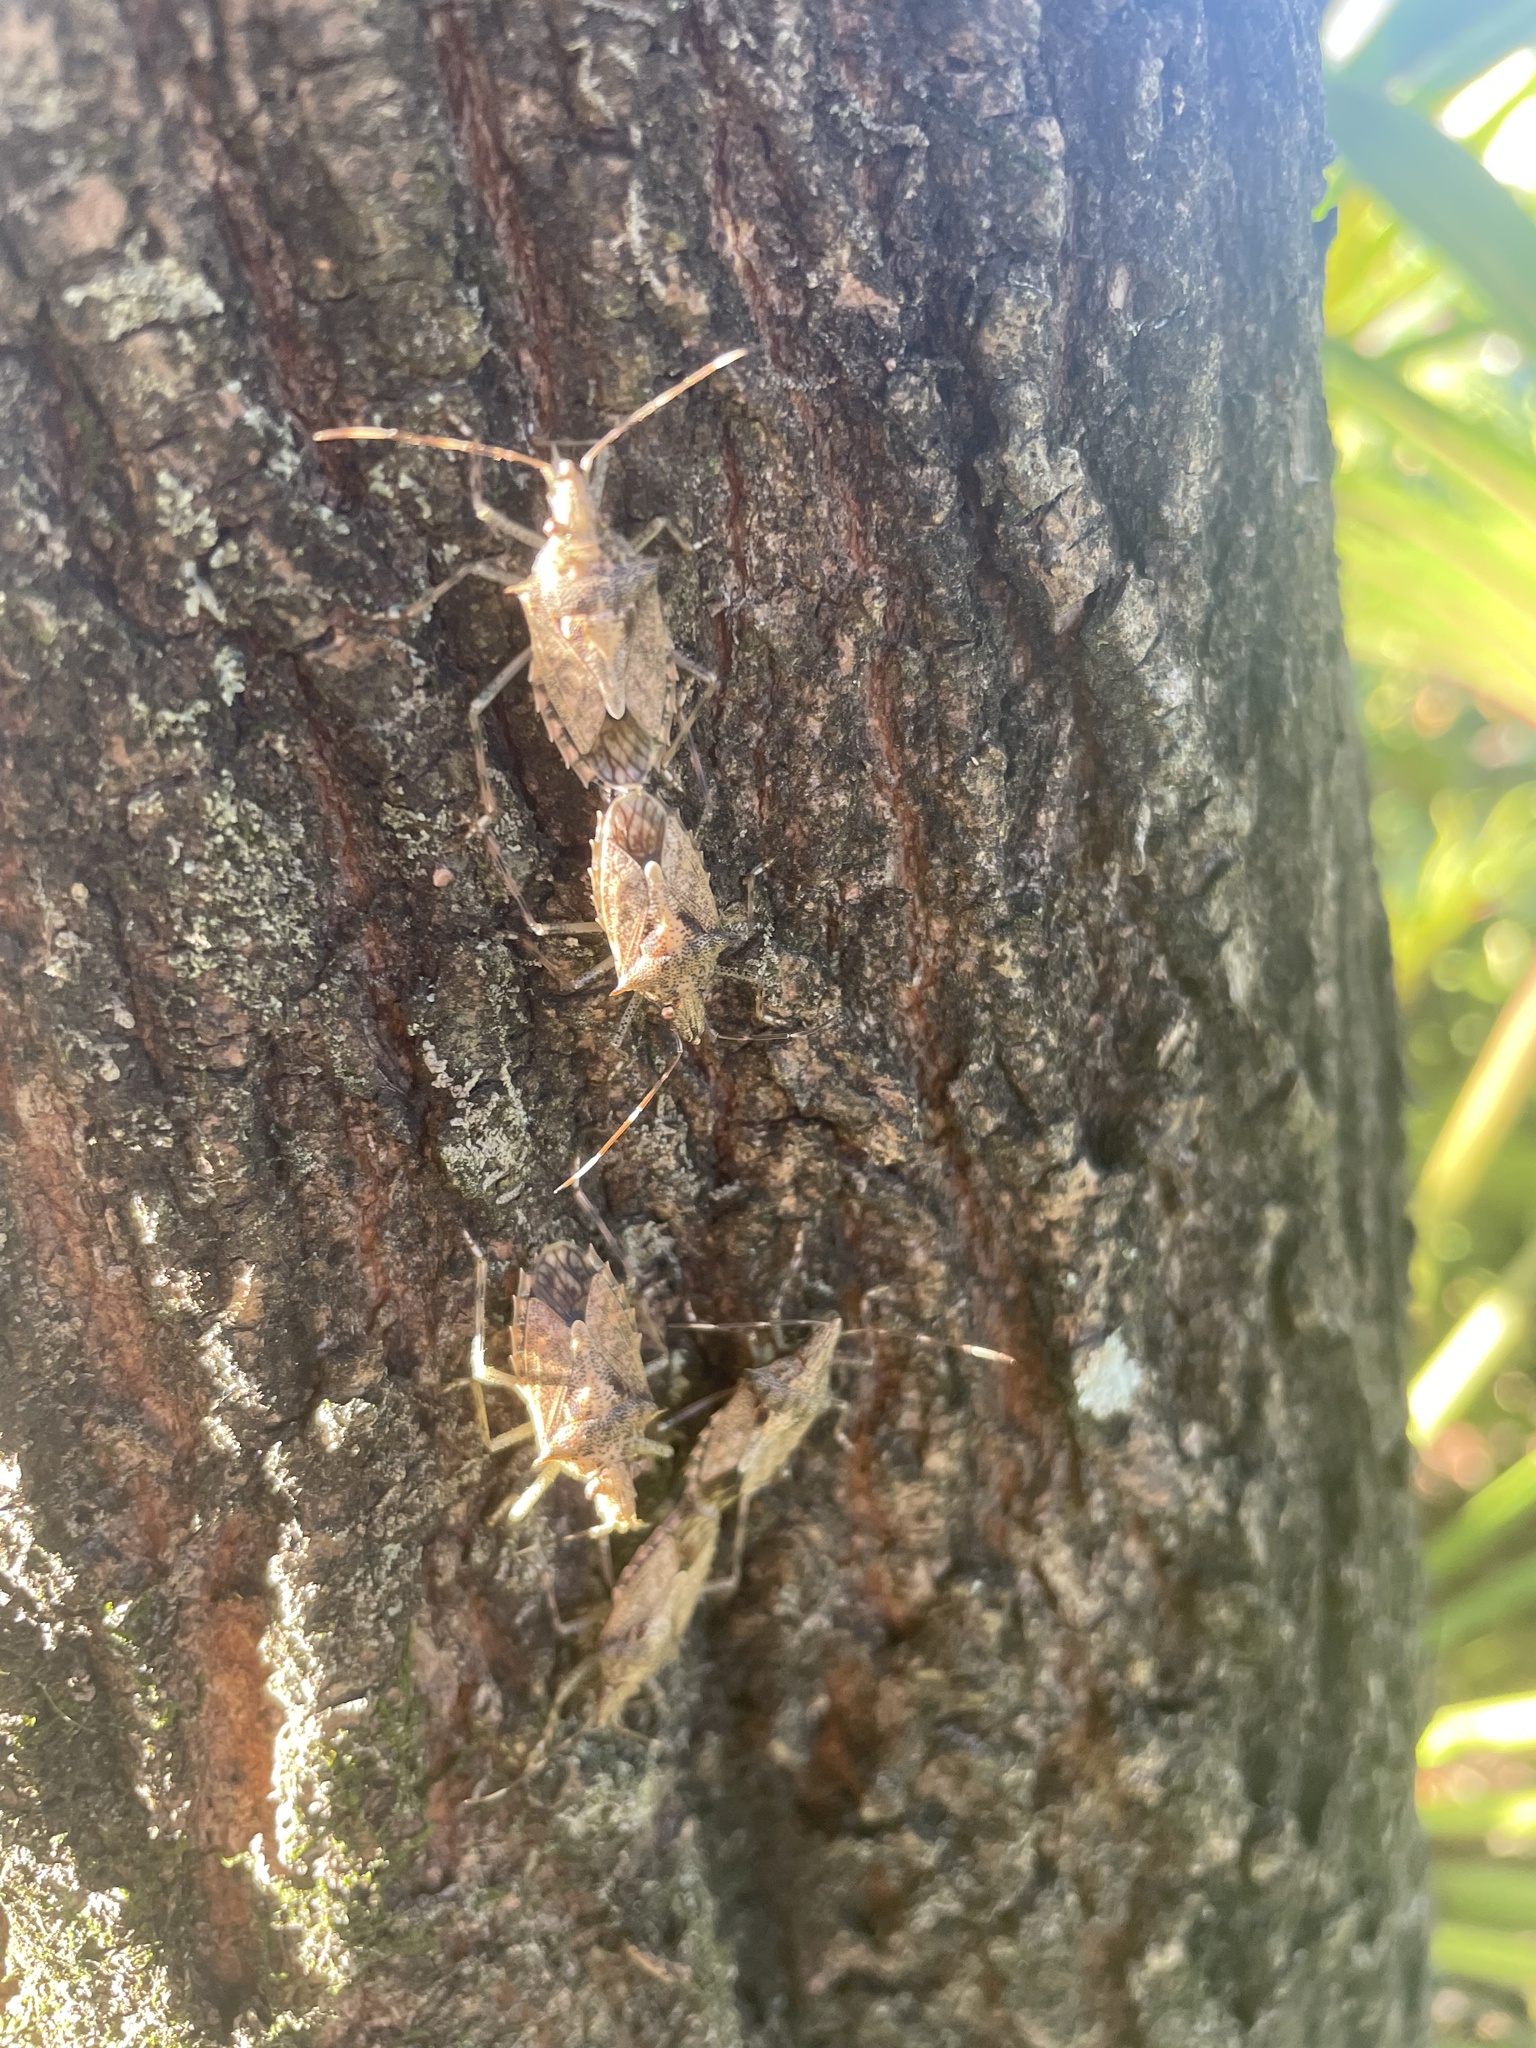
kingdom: Animalia
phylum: Arthropoda
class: Insecta
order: Hemiptera
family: Pentatomidae
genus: Bromocoris
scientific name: Bromocoris
